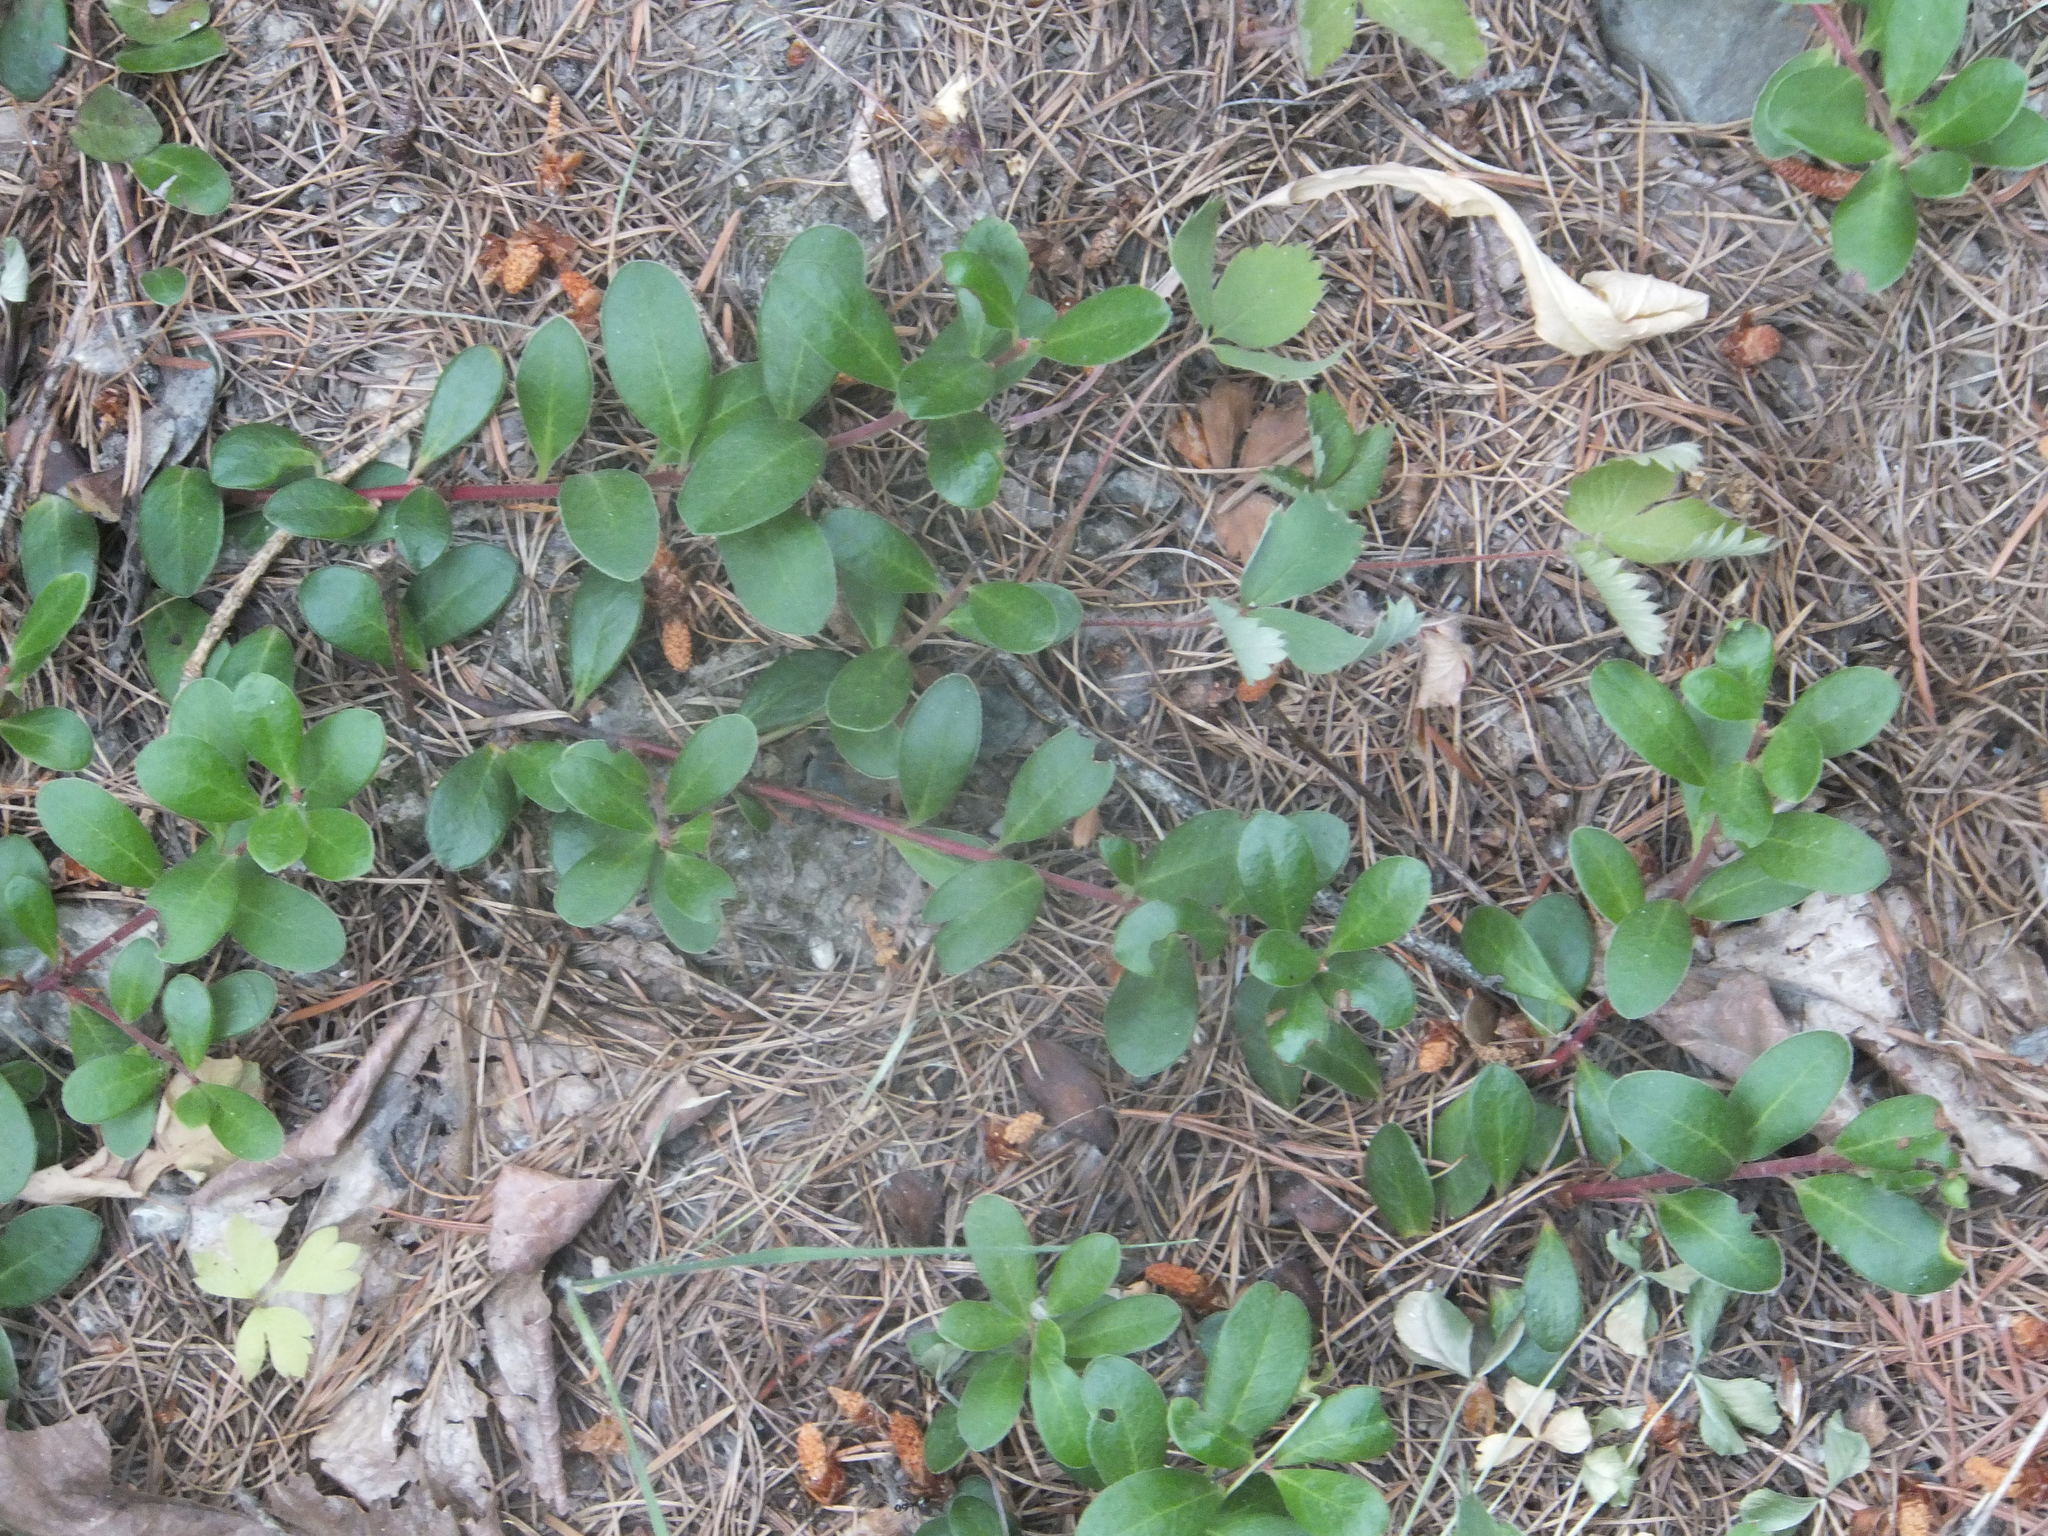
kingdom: Plantae
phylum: Tracheophyta
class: Magnoliopsida
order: Ericales
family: Ericaceae
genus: Arctostaphylos
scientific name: Arctostaphylos uva-ursi
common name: Bearberry
